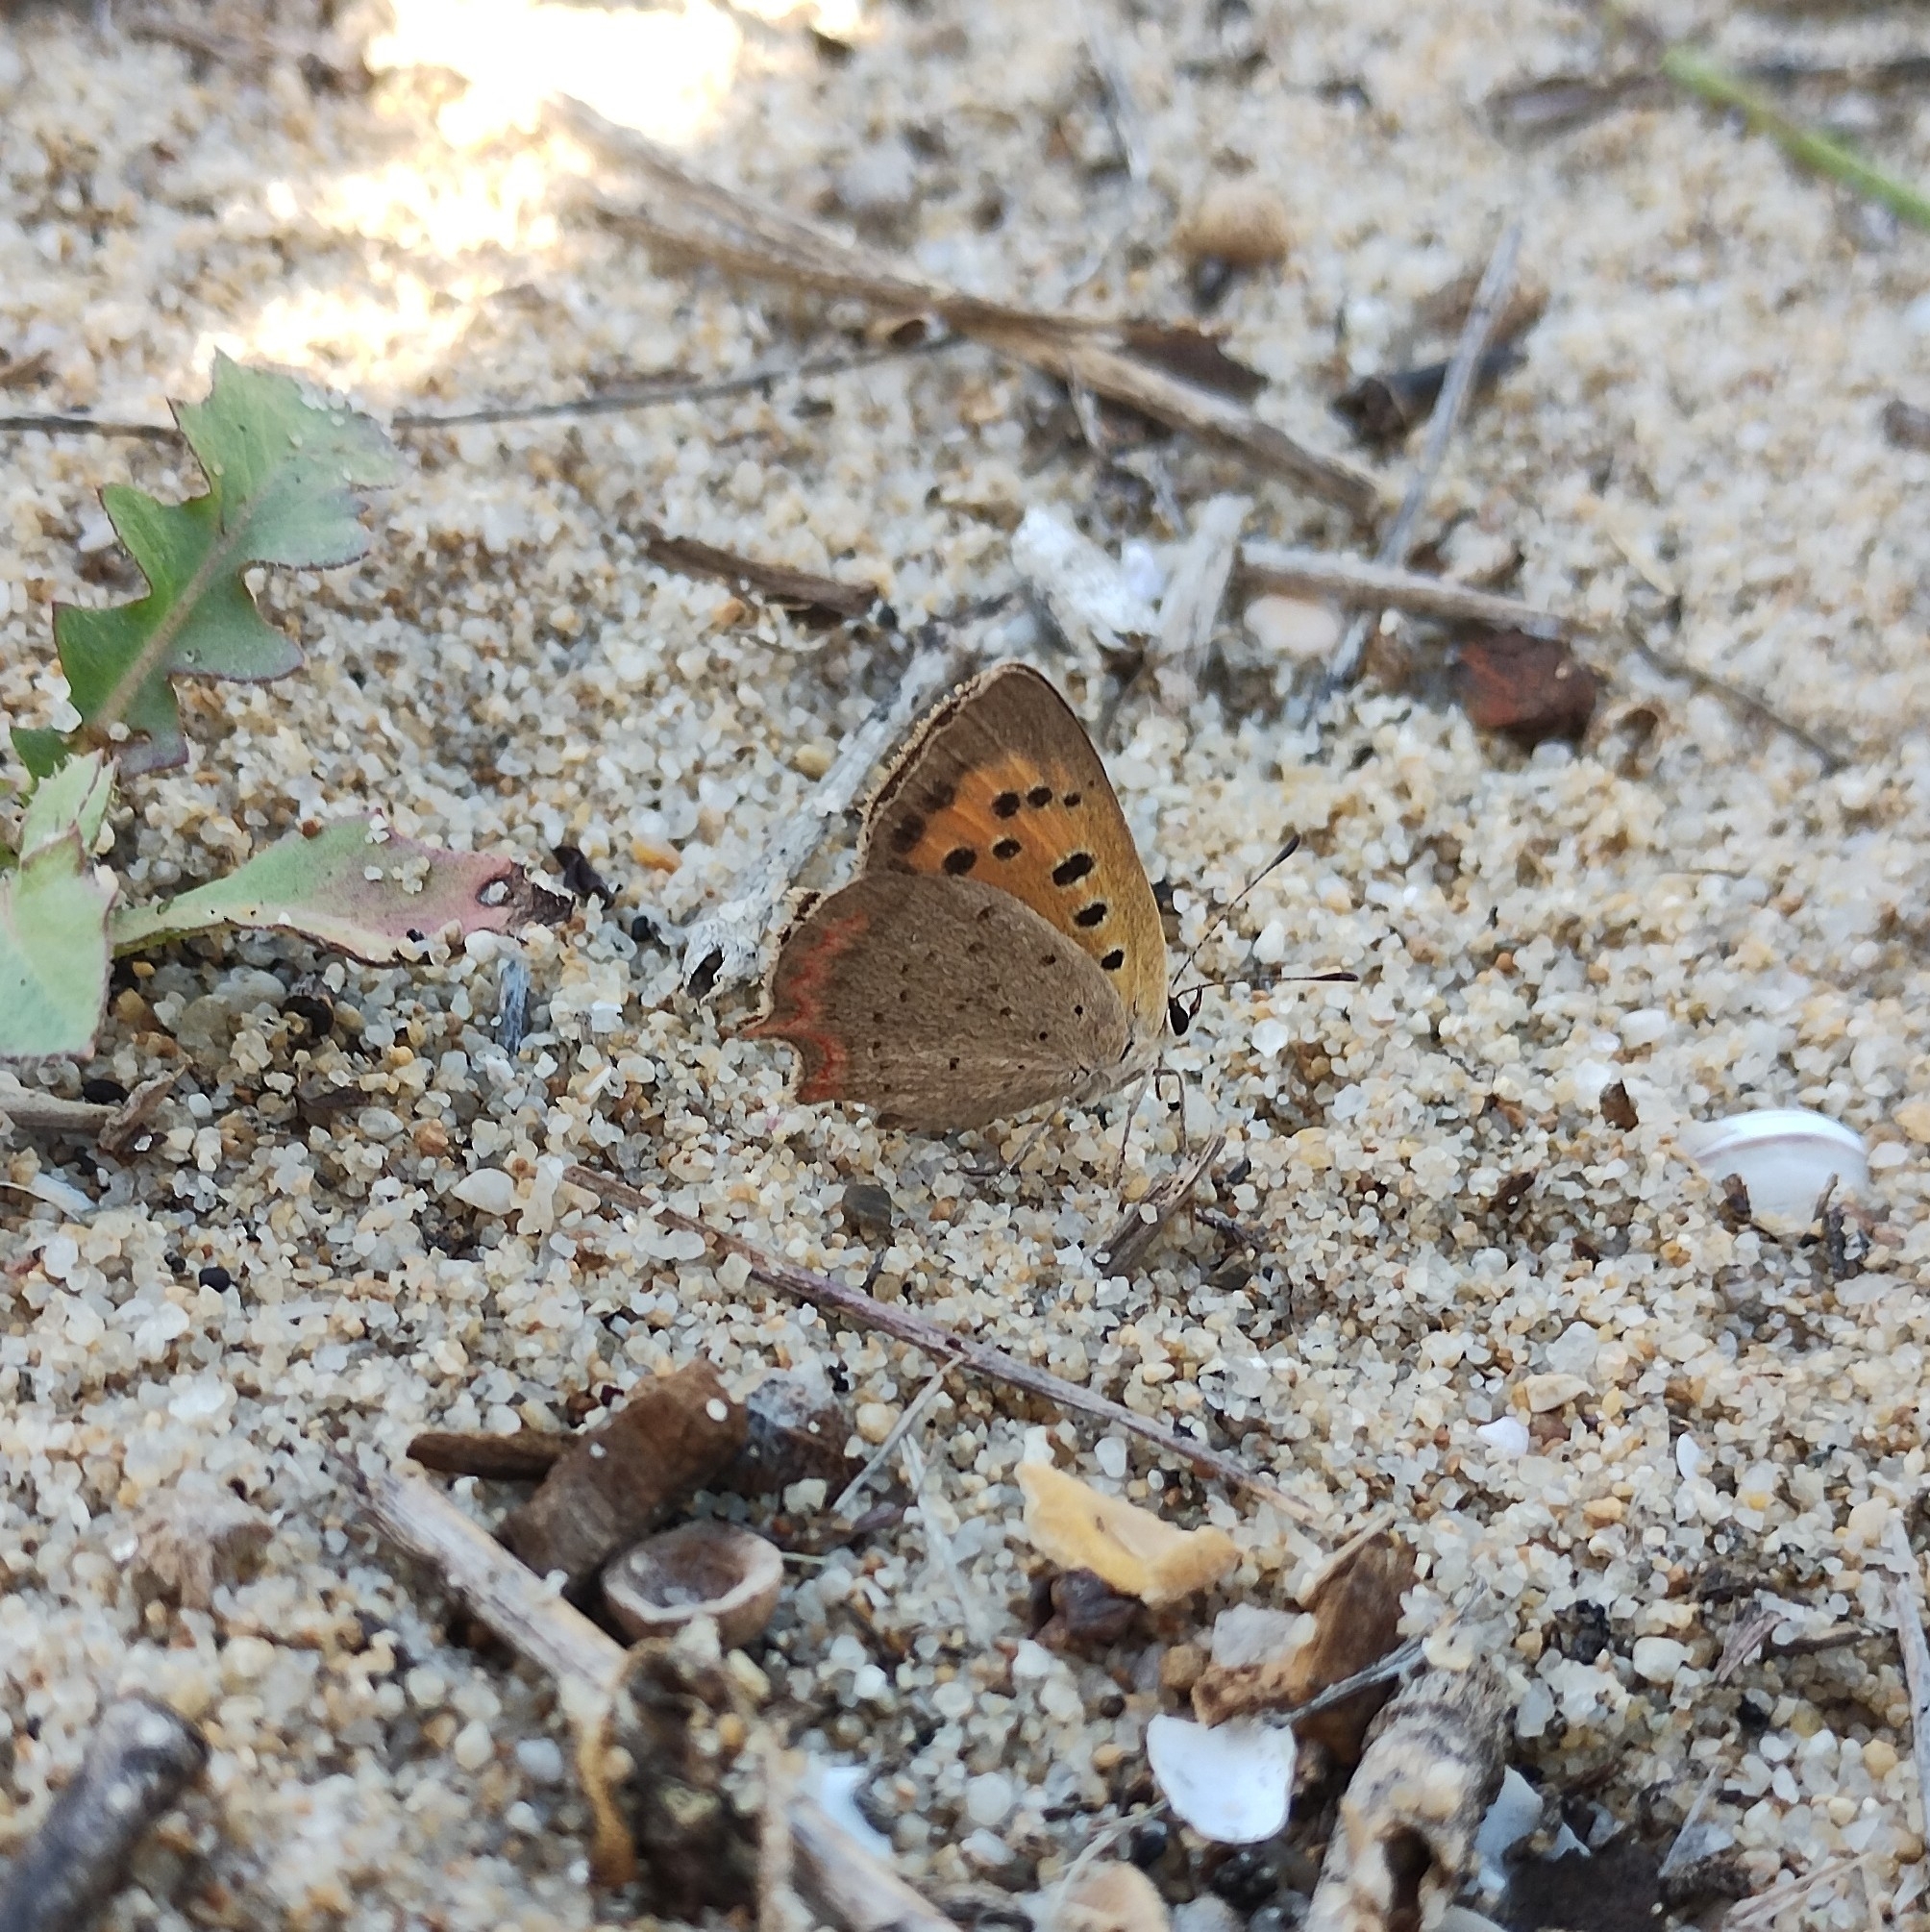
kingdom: Animalia
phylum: Arthropoda
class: Insecta
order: Lepidoptera
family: Lycaenidae
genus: Lycaena
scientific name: Lycaena phlaeas
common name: Small copper
